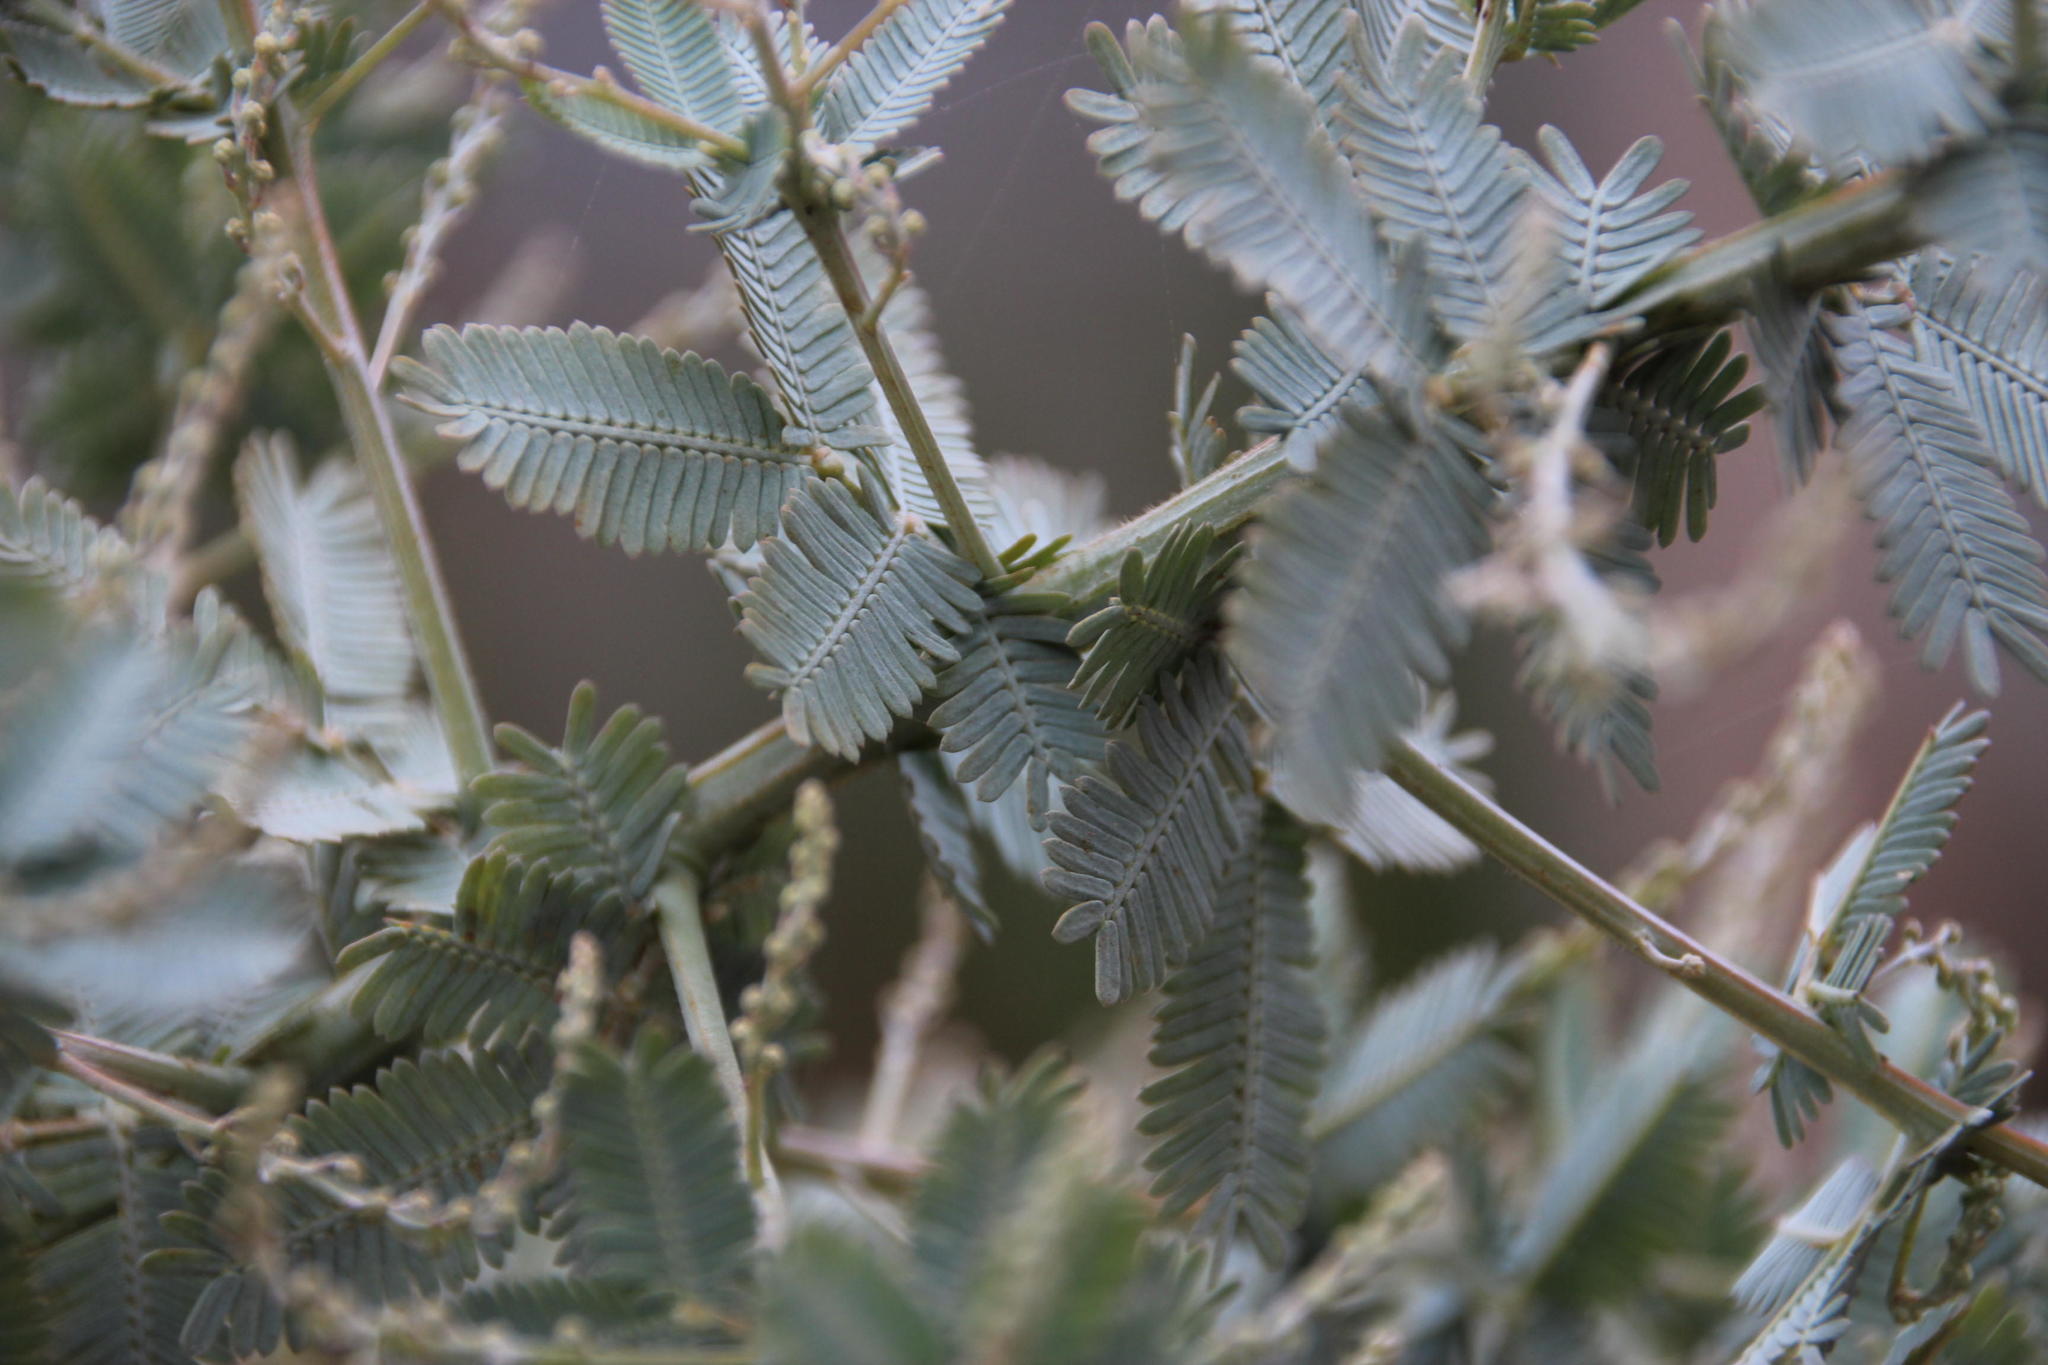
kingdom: Plantae
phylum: Tracheophyta
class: Magnoliopsida
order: Fabales
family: Fabaceae
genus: Acacia
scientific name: Acacia baileyana
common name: Cootamundra wattle
